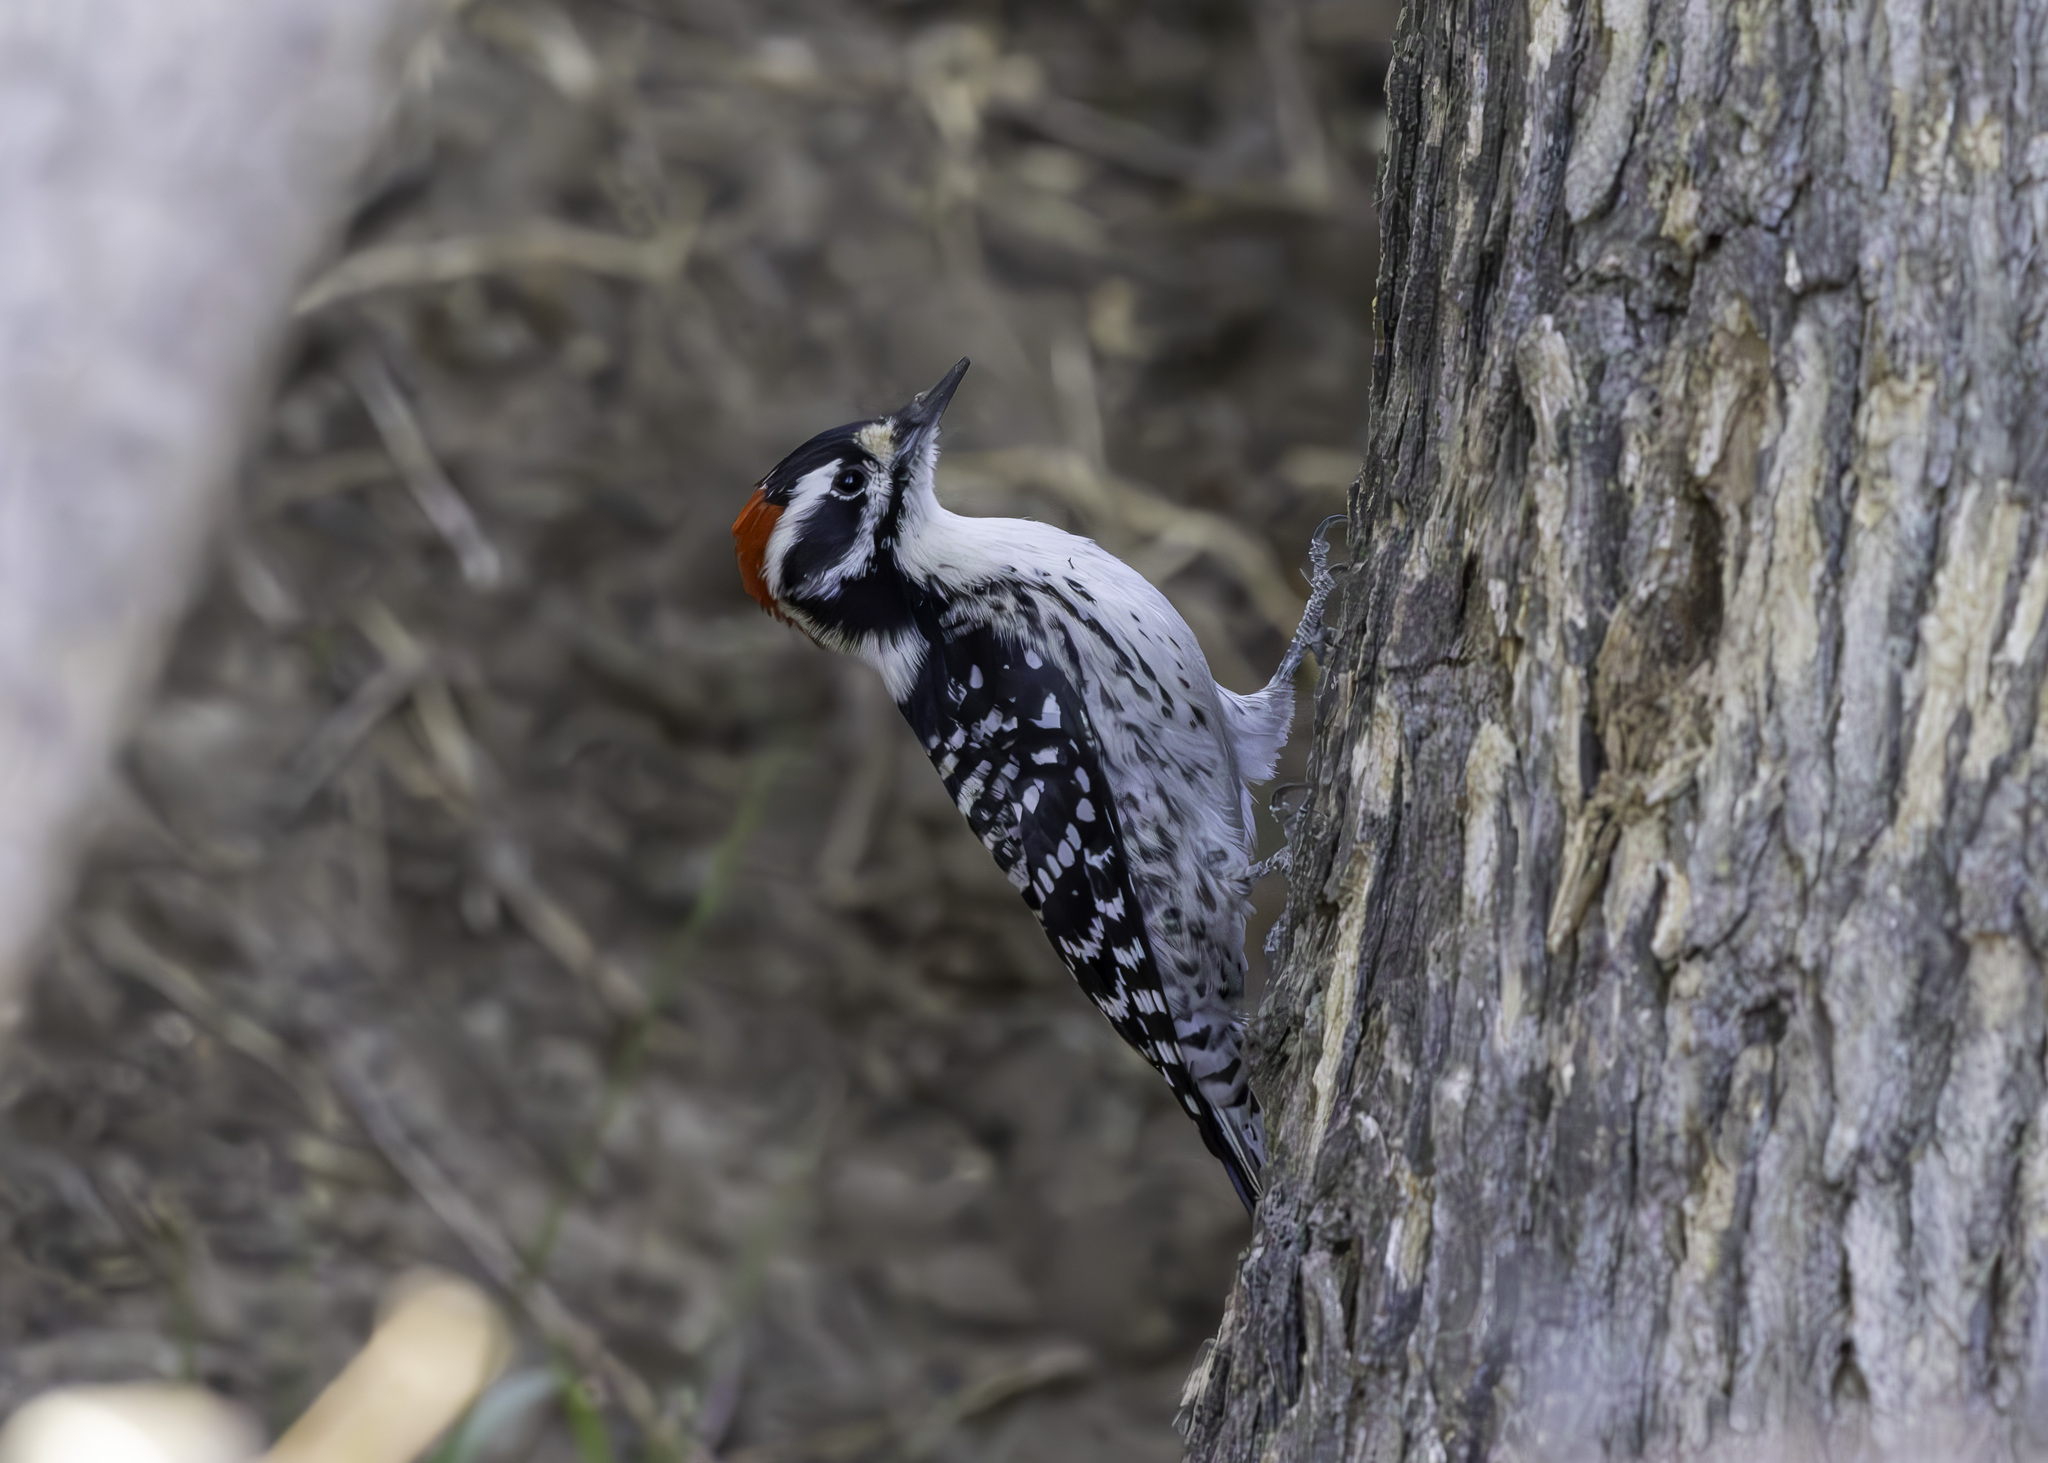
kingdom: Animalia
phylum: Chordata
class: Aves
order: Piciformes
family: Picidae
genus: Dryobates
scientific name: Dryobates nuttallii
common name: Nuttall's woodpecker
